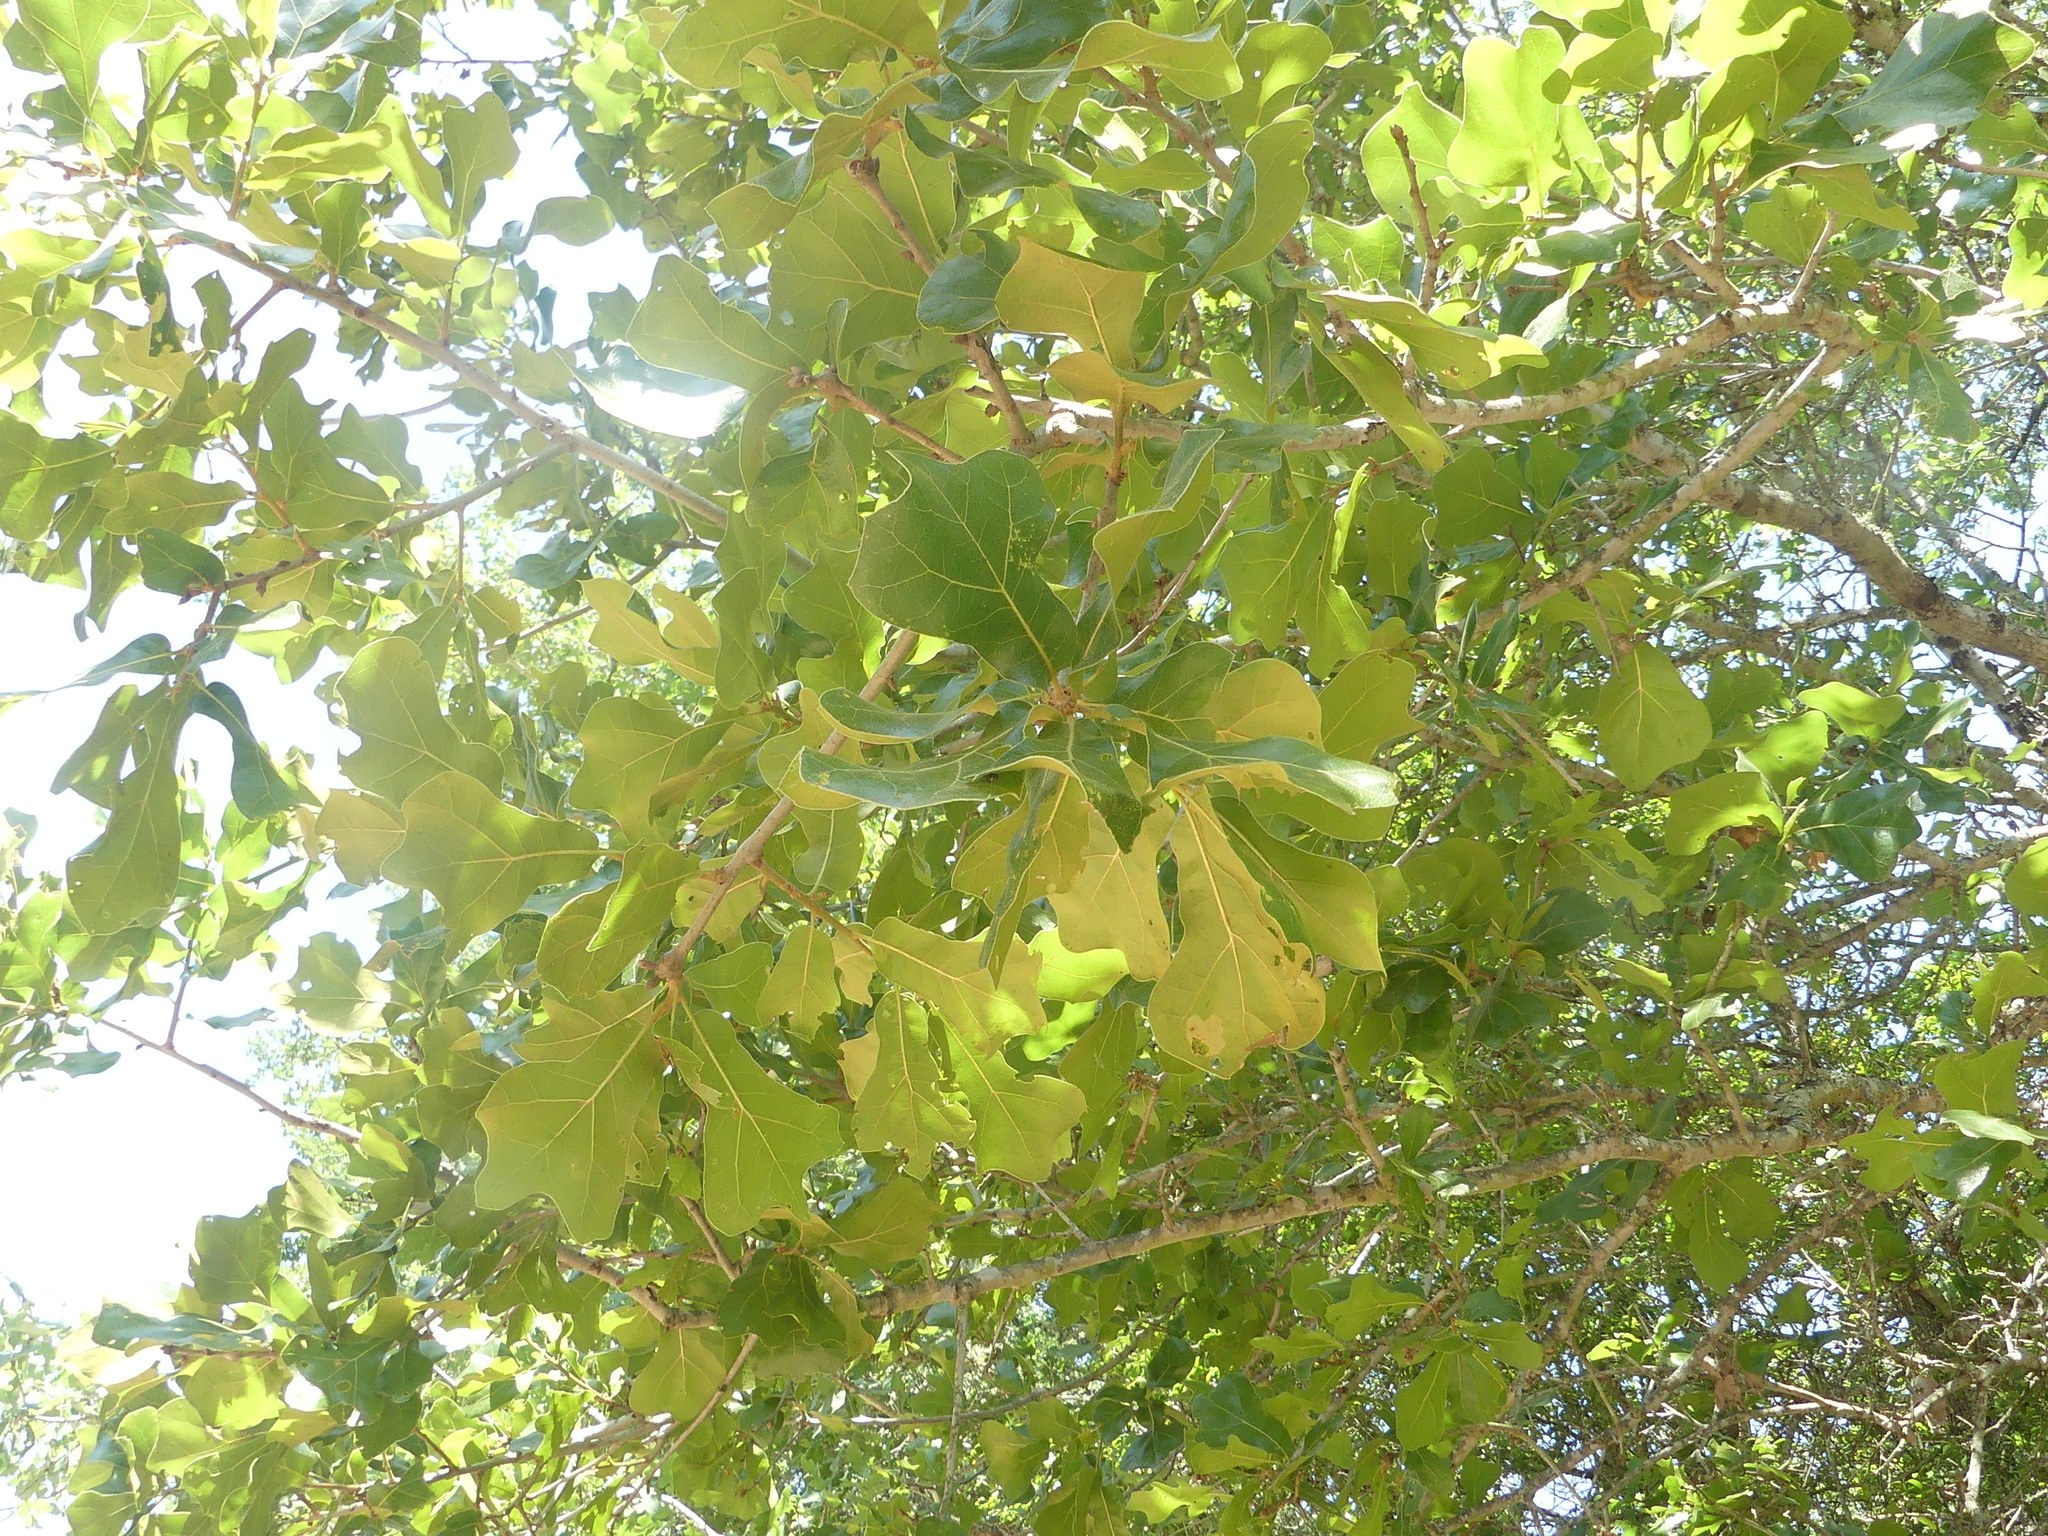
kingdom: Plantae
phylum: Tracheophyta
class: Magnoliopsida
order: Fagales
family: Fagaceae
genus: Quercus
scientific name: Quercus marilandica
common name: Blackjack oak
